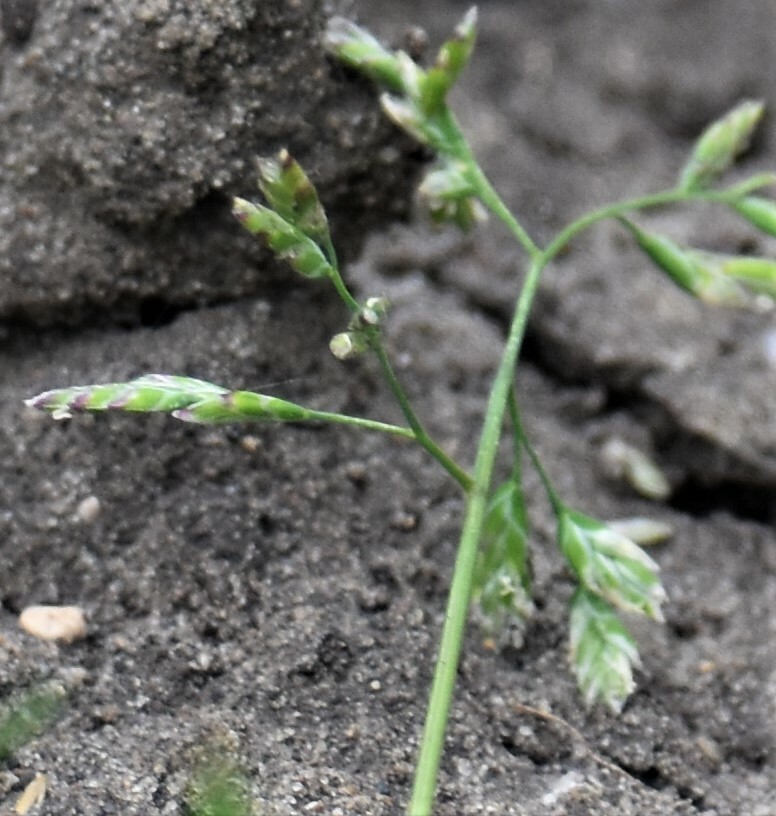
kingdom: Plantae
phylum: Tracheophyta
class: Liliopsida
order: Poales
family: Poaceae
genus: Poa
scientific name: Poa annua
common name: Annual bluegrass
